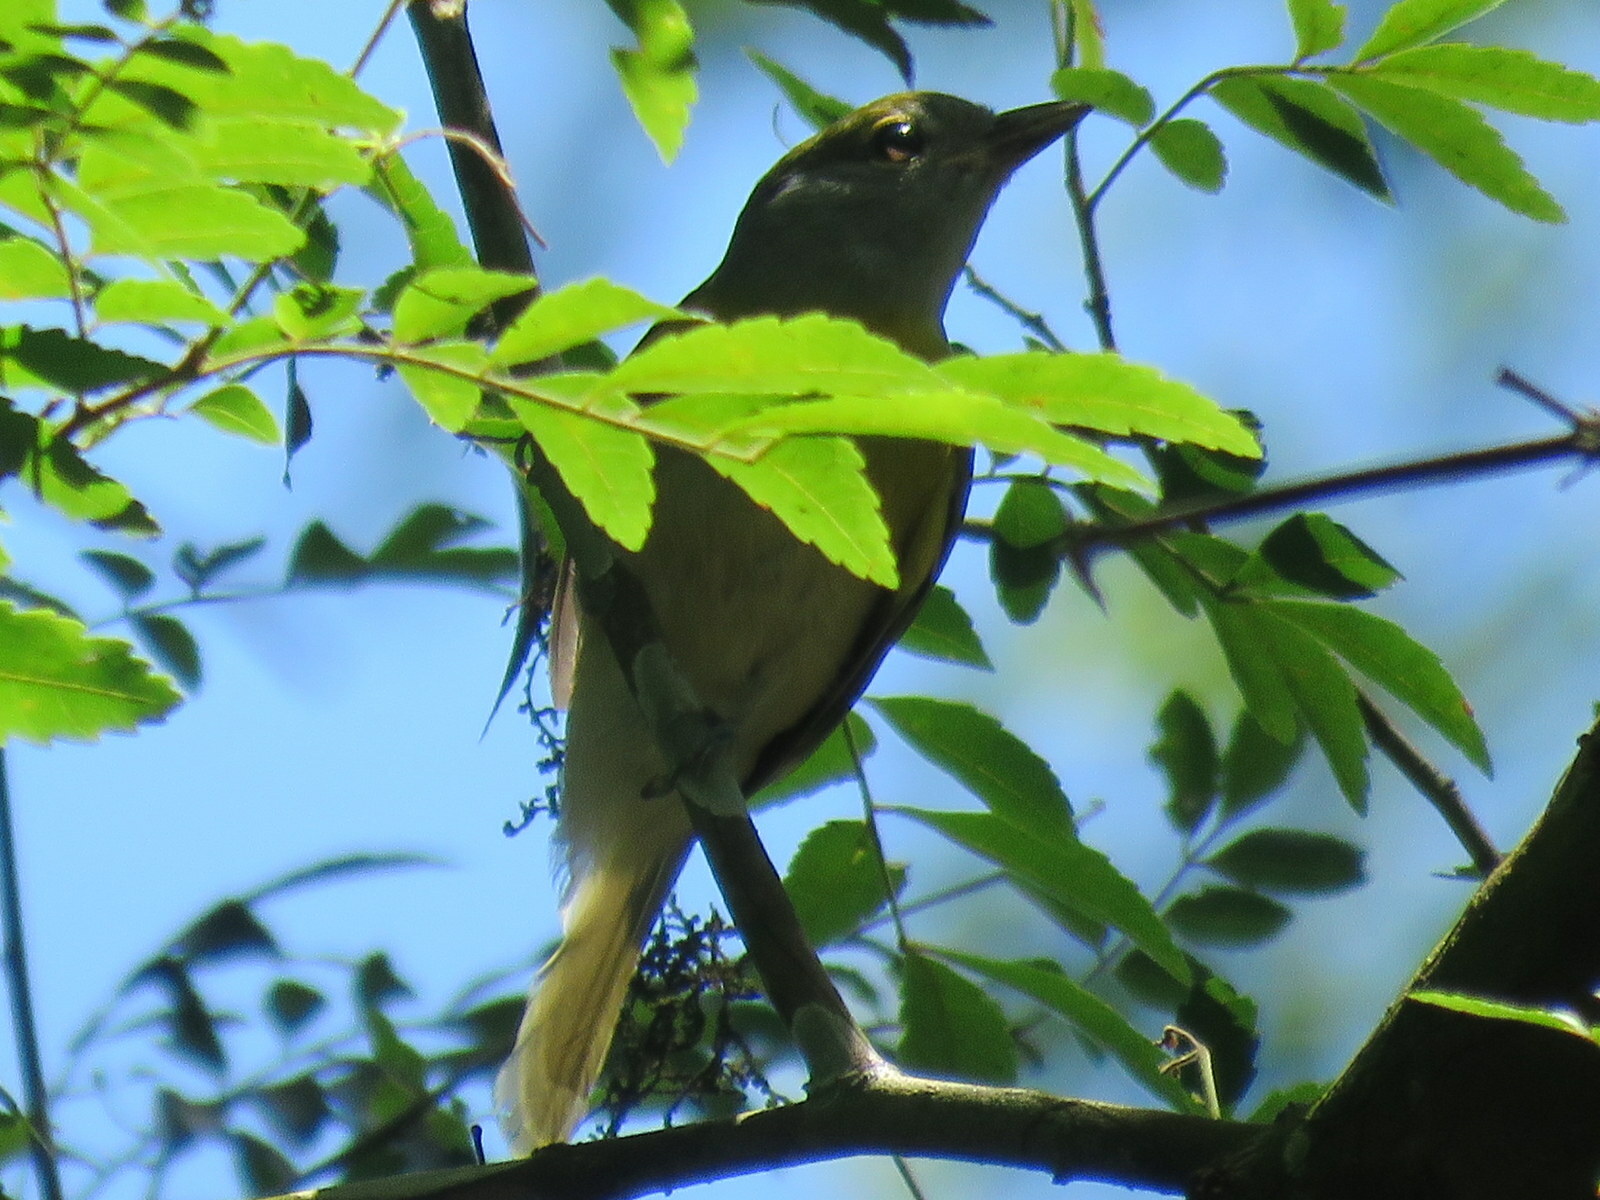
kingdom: Animalia
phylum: Chordata
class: Aves
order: Passeriformes
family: Cotingidae
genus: Pachyramphus
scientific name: Pachyramphus viridis
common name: Green-backed becard
